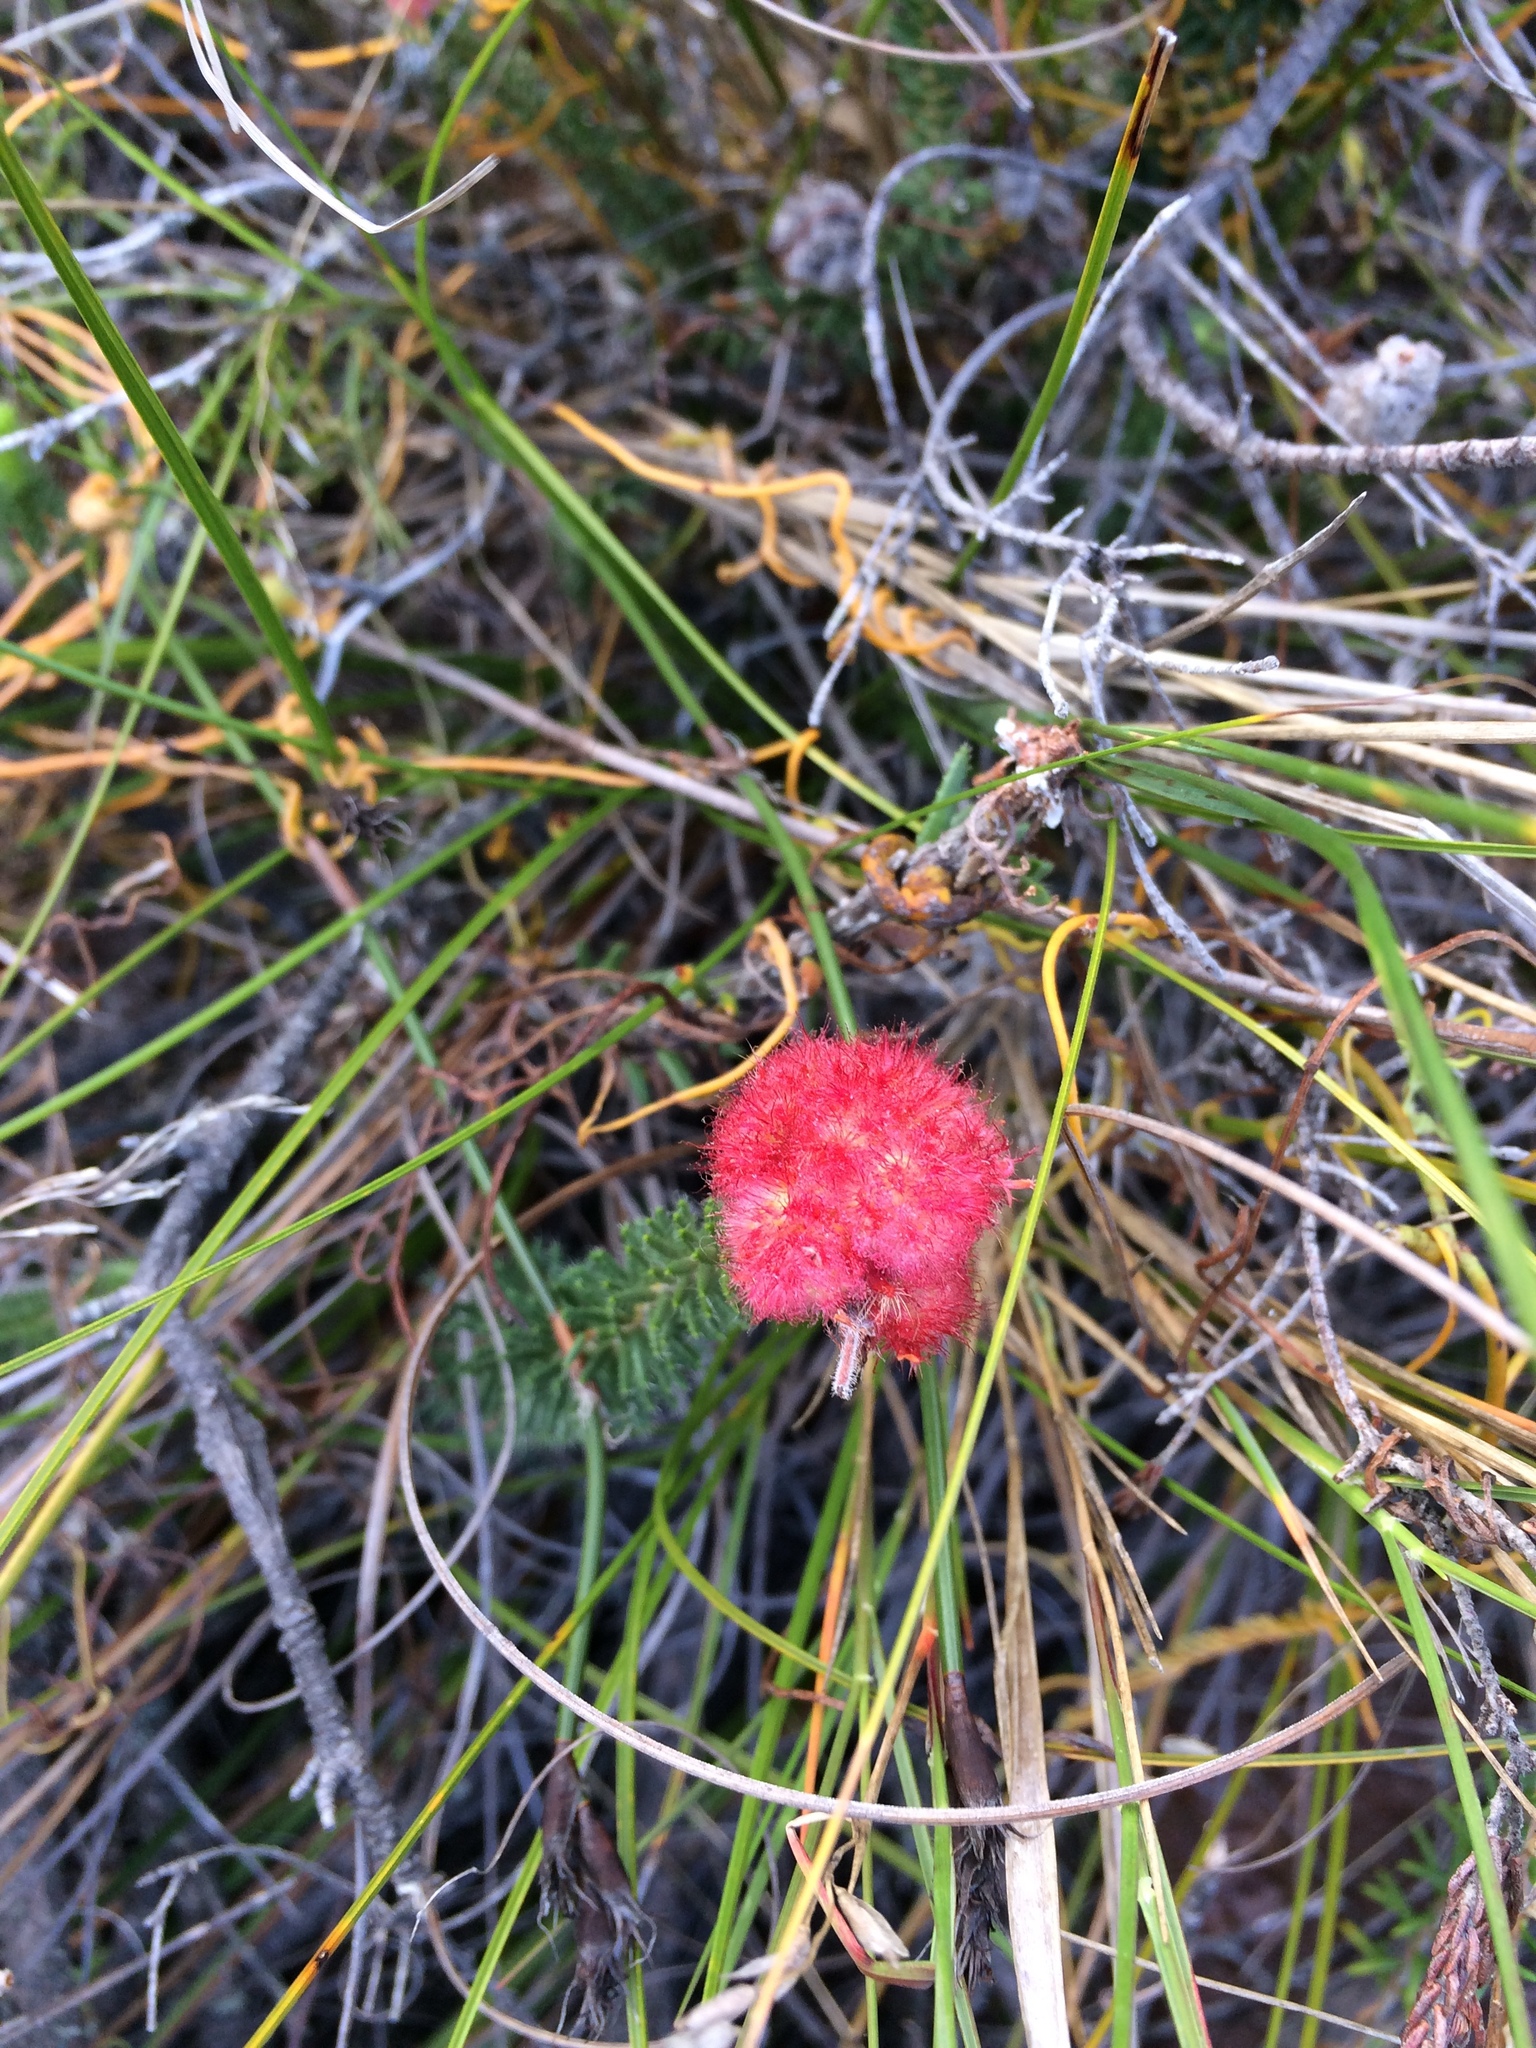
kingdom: Plantae
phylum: Tracheophyta
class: Magnoliopsida
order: Ericales
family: Ericaceae
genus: Erica
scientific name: Erica cerinthoides
